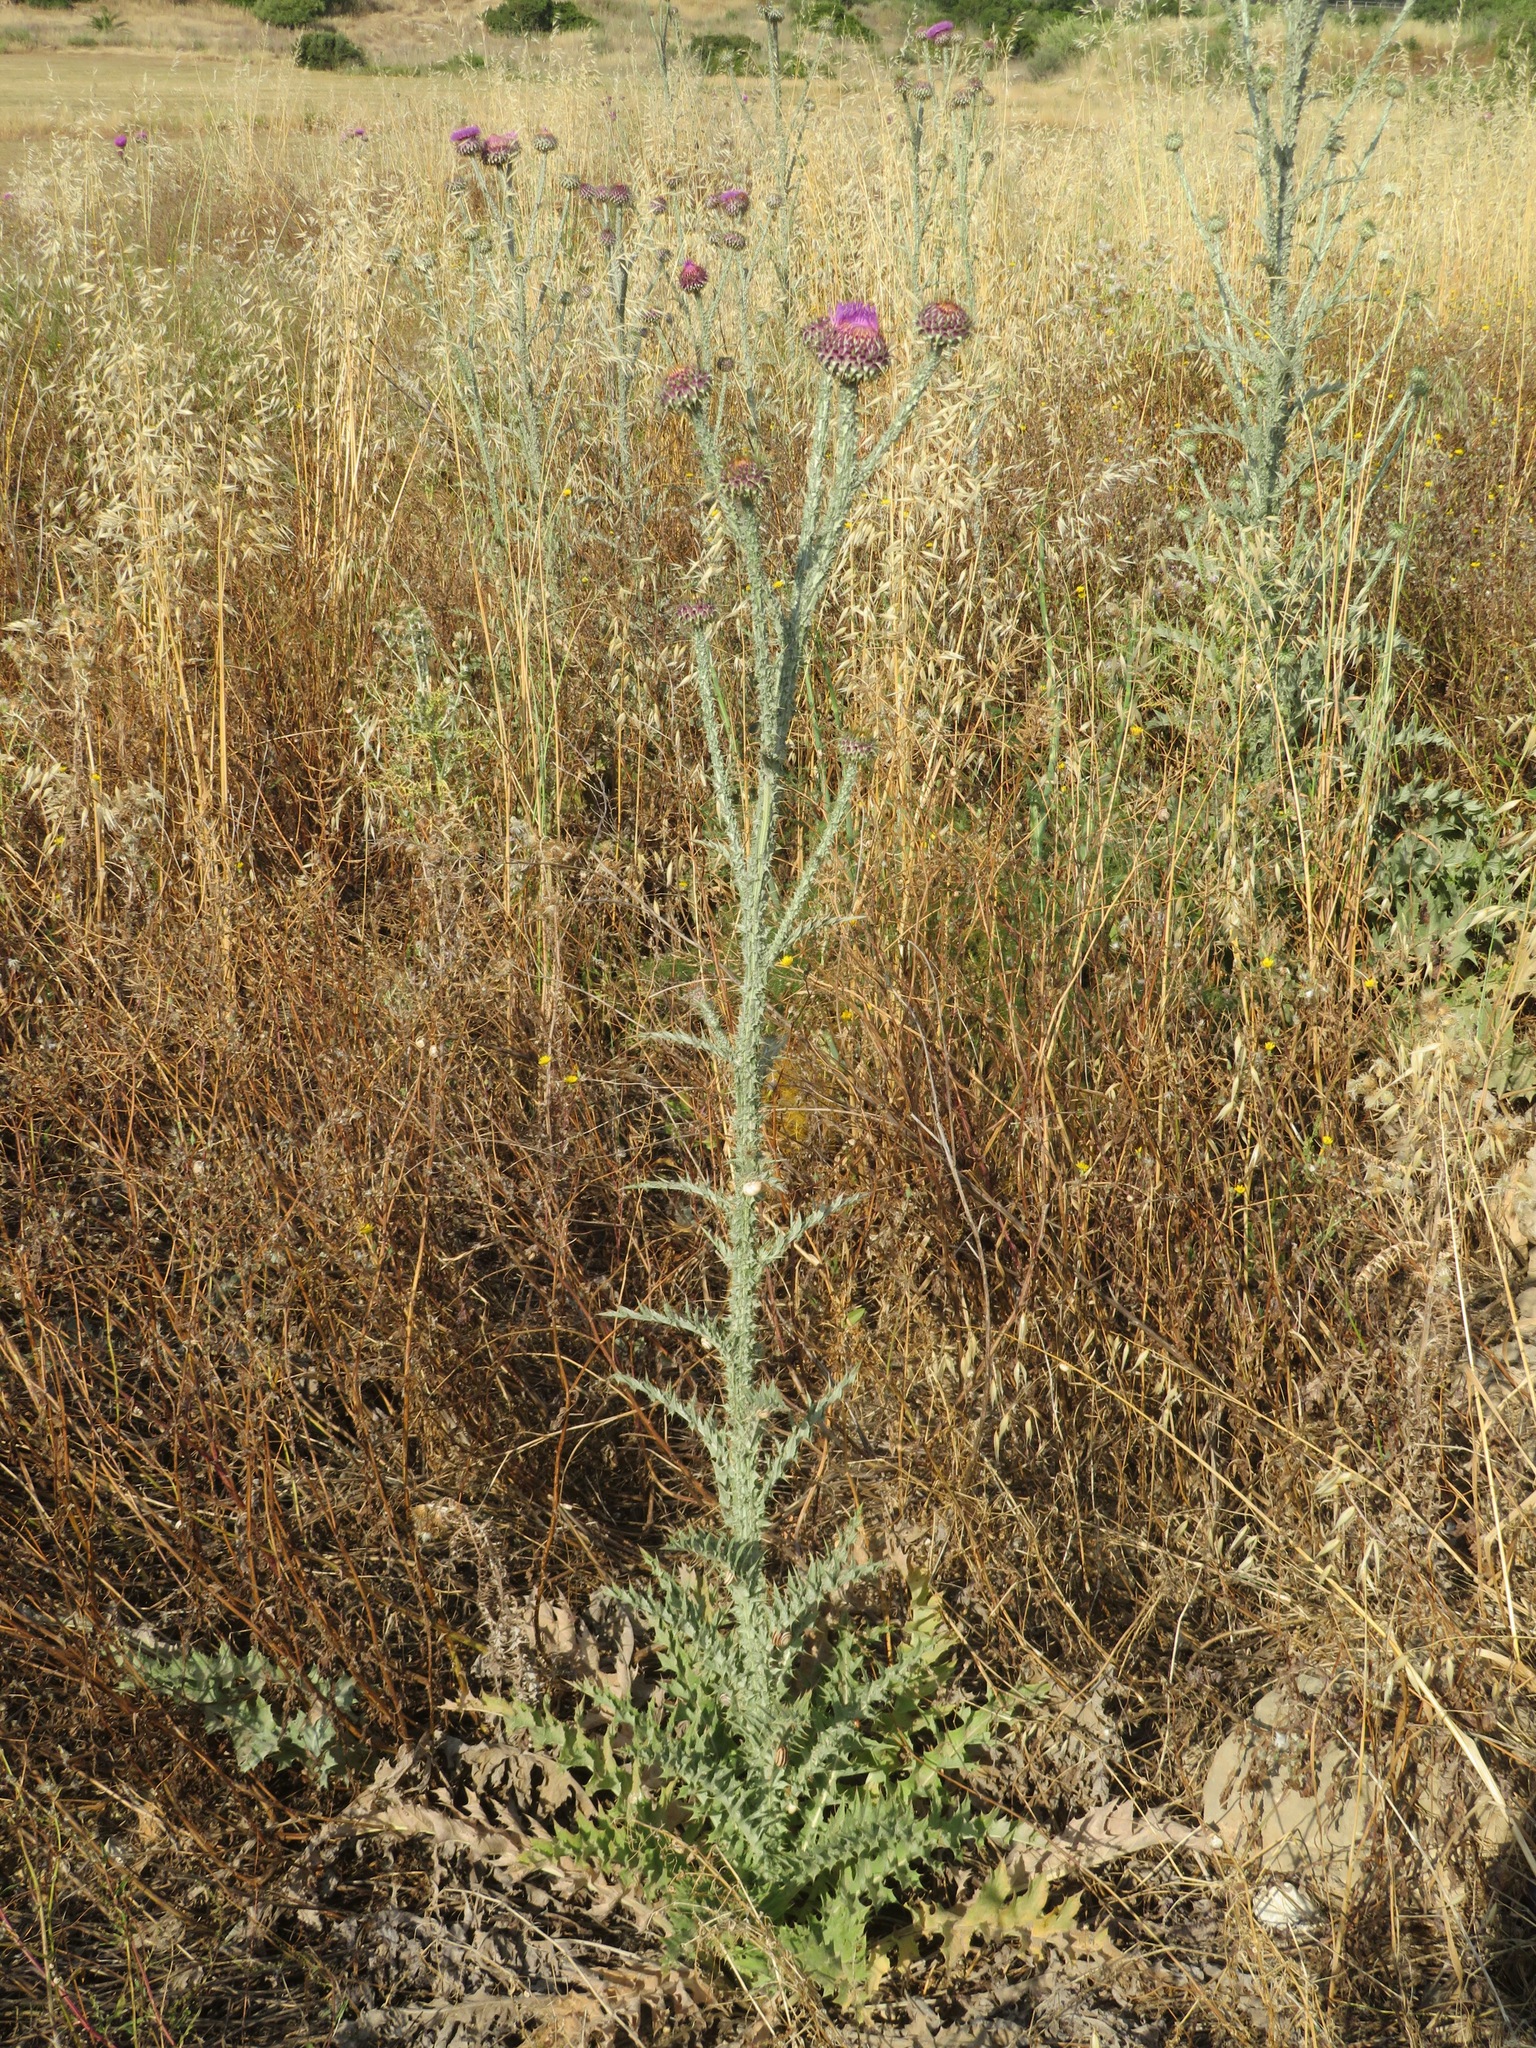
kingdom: Plantae
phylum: Tracheophyta
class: Magnoliopsida
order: Asterales
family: Asteraceae
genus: Onopordum
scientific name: Onopordum illyricum
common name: Illyrian thistle
